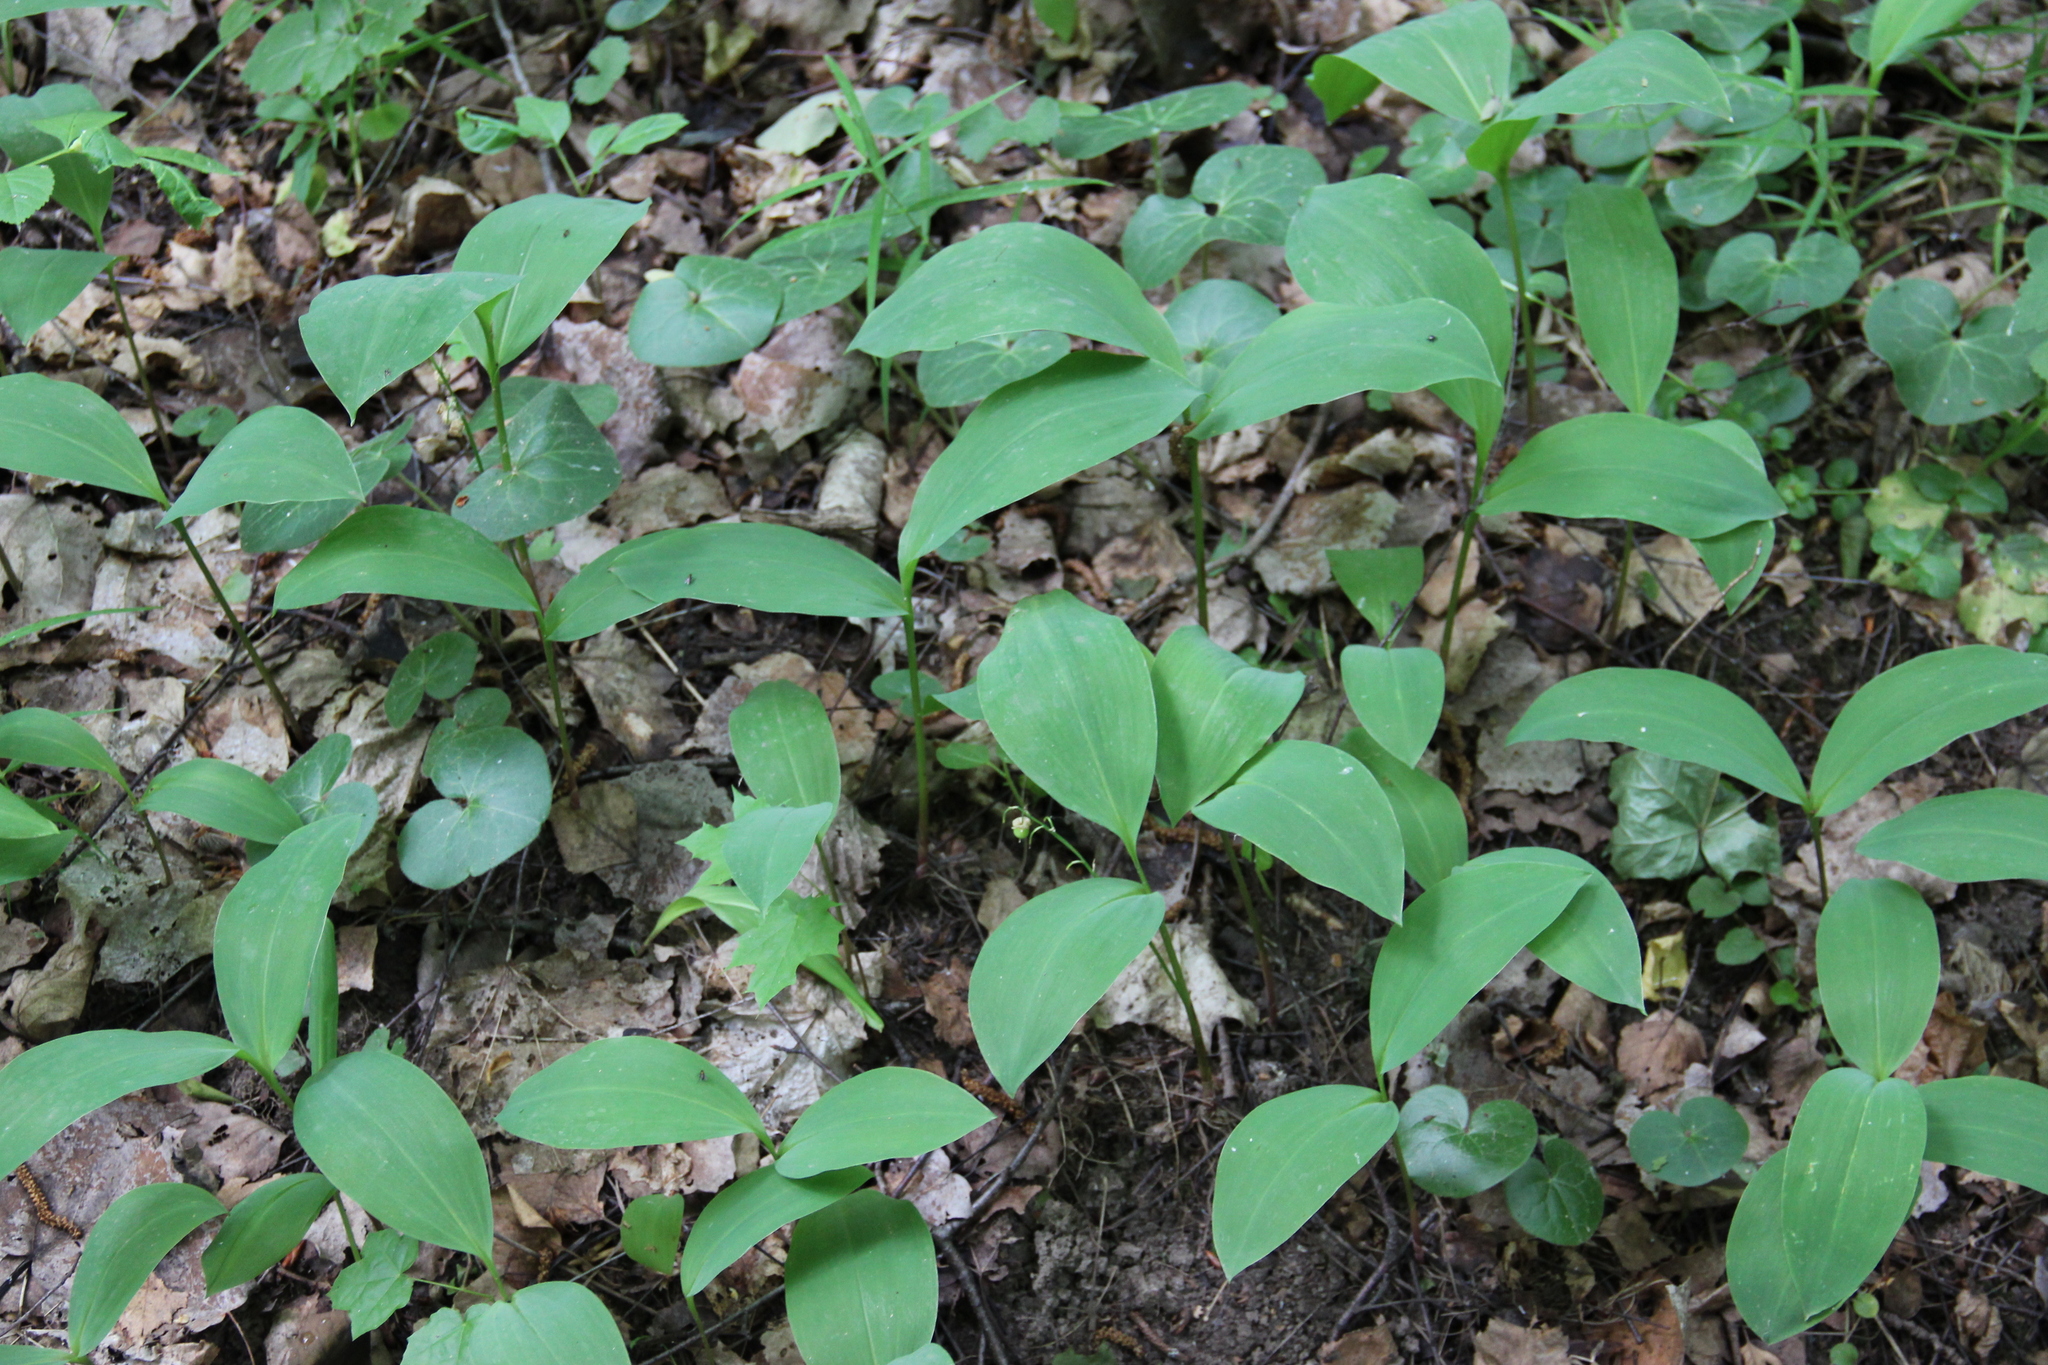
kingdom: Plantae
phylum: Tracheophyta
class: Liliopsida
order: Asparagales
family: Asparagaceae
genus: Convallaria
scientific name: Convallaria majalis
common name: Lily-of-the-valley
